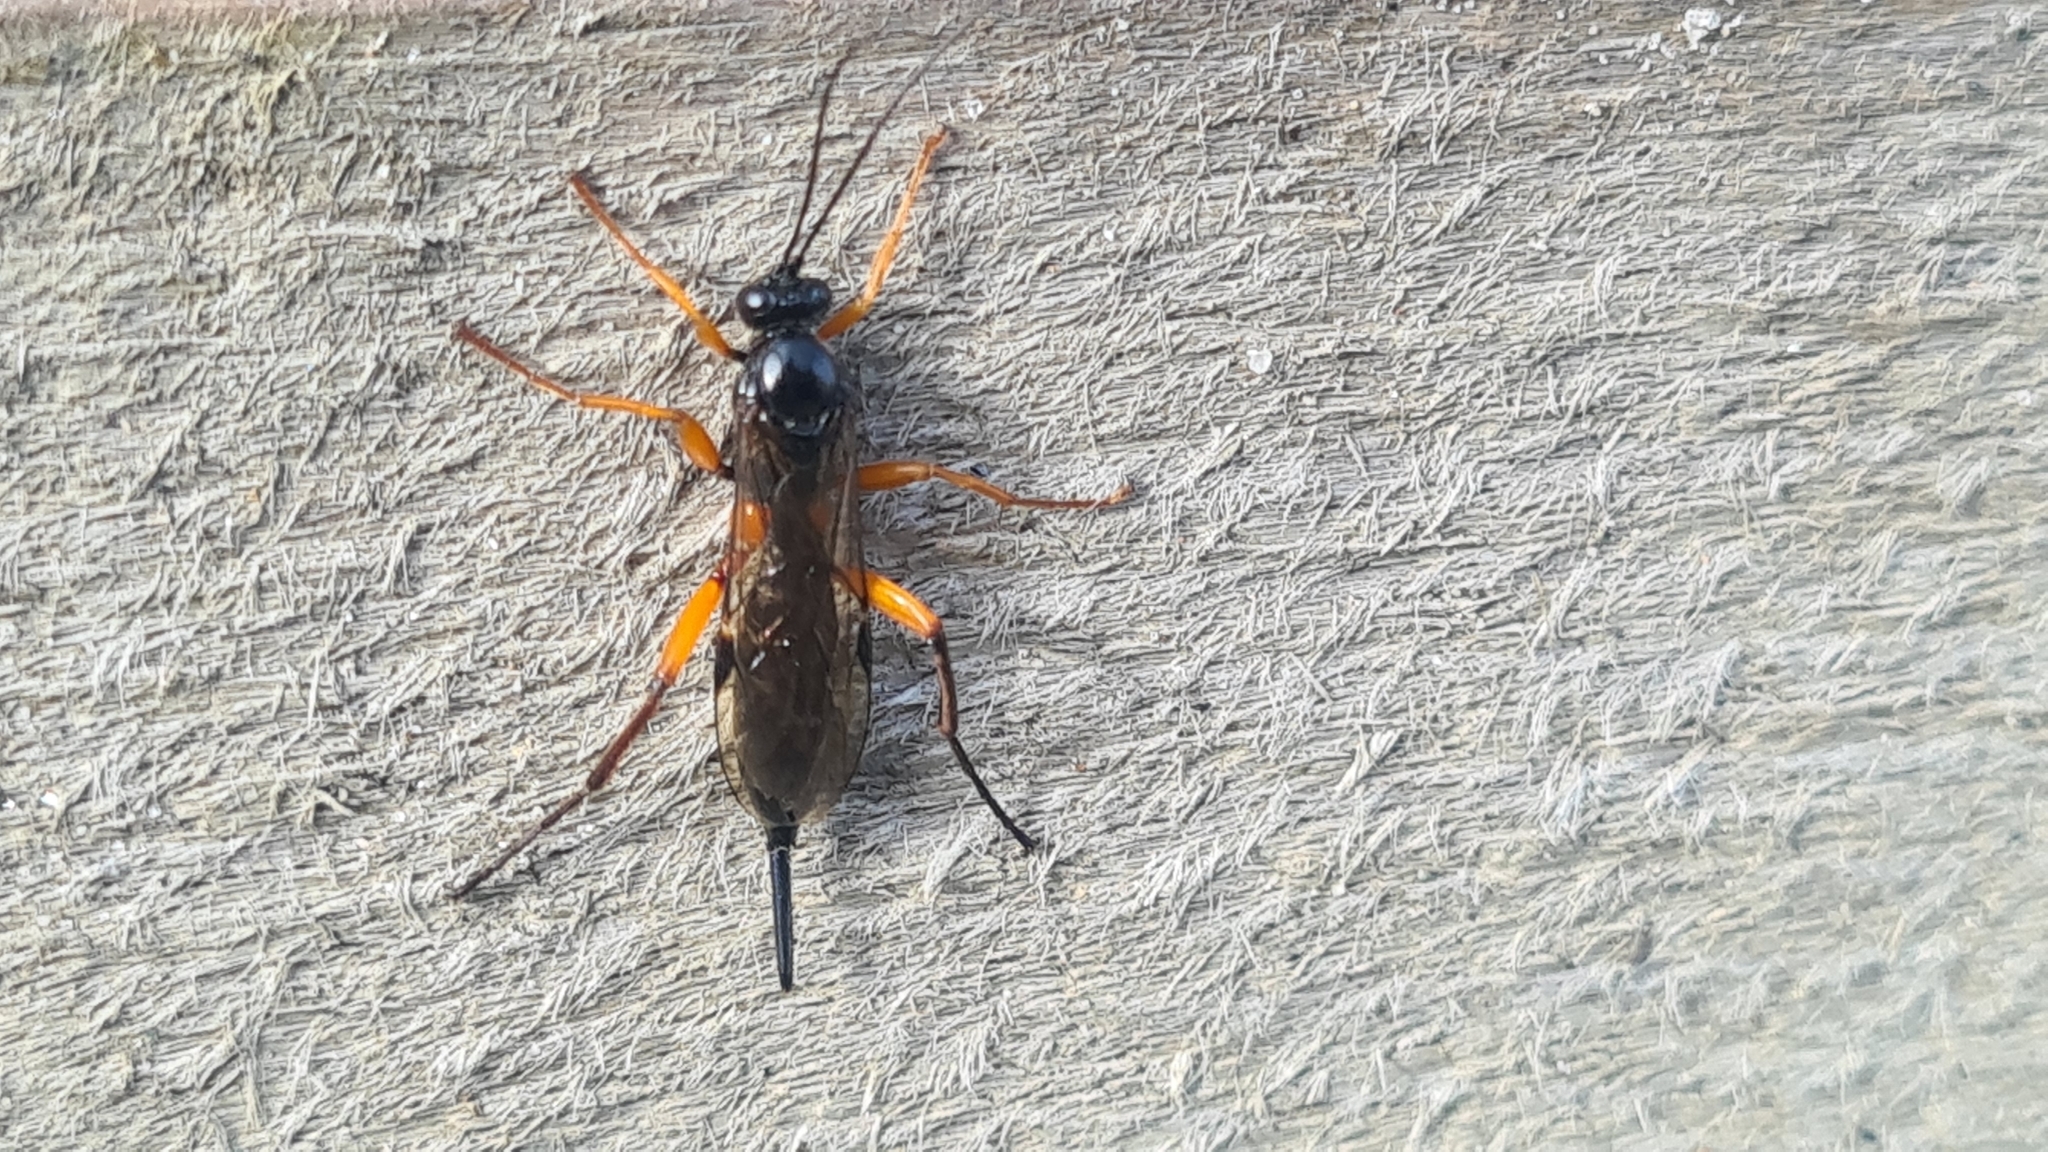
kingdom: Animalia
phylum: Arthropoda
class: Insecta
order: Hymenoptera
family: Ichneumonidae
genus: Pimpla
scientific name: Pimpla arctica
